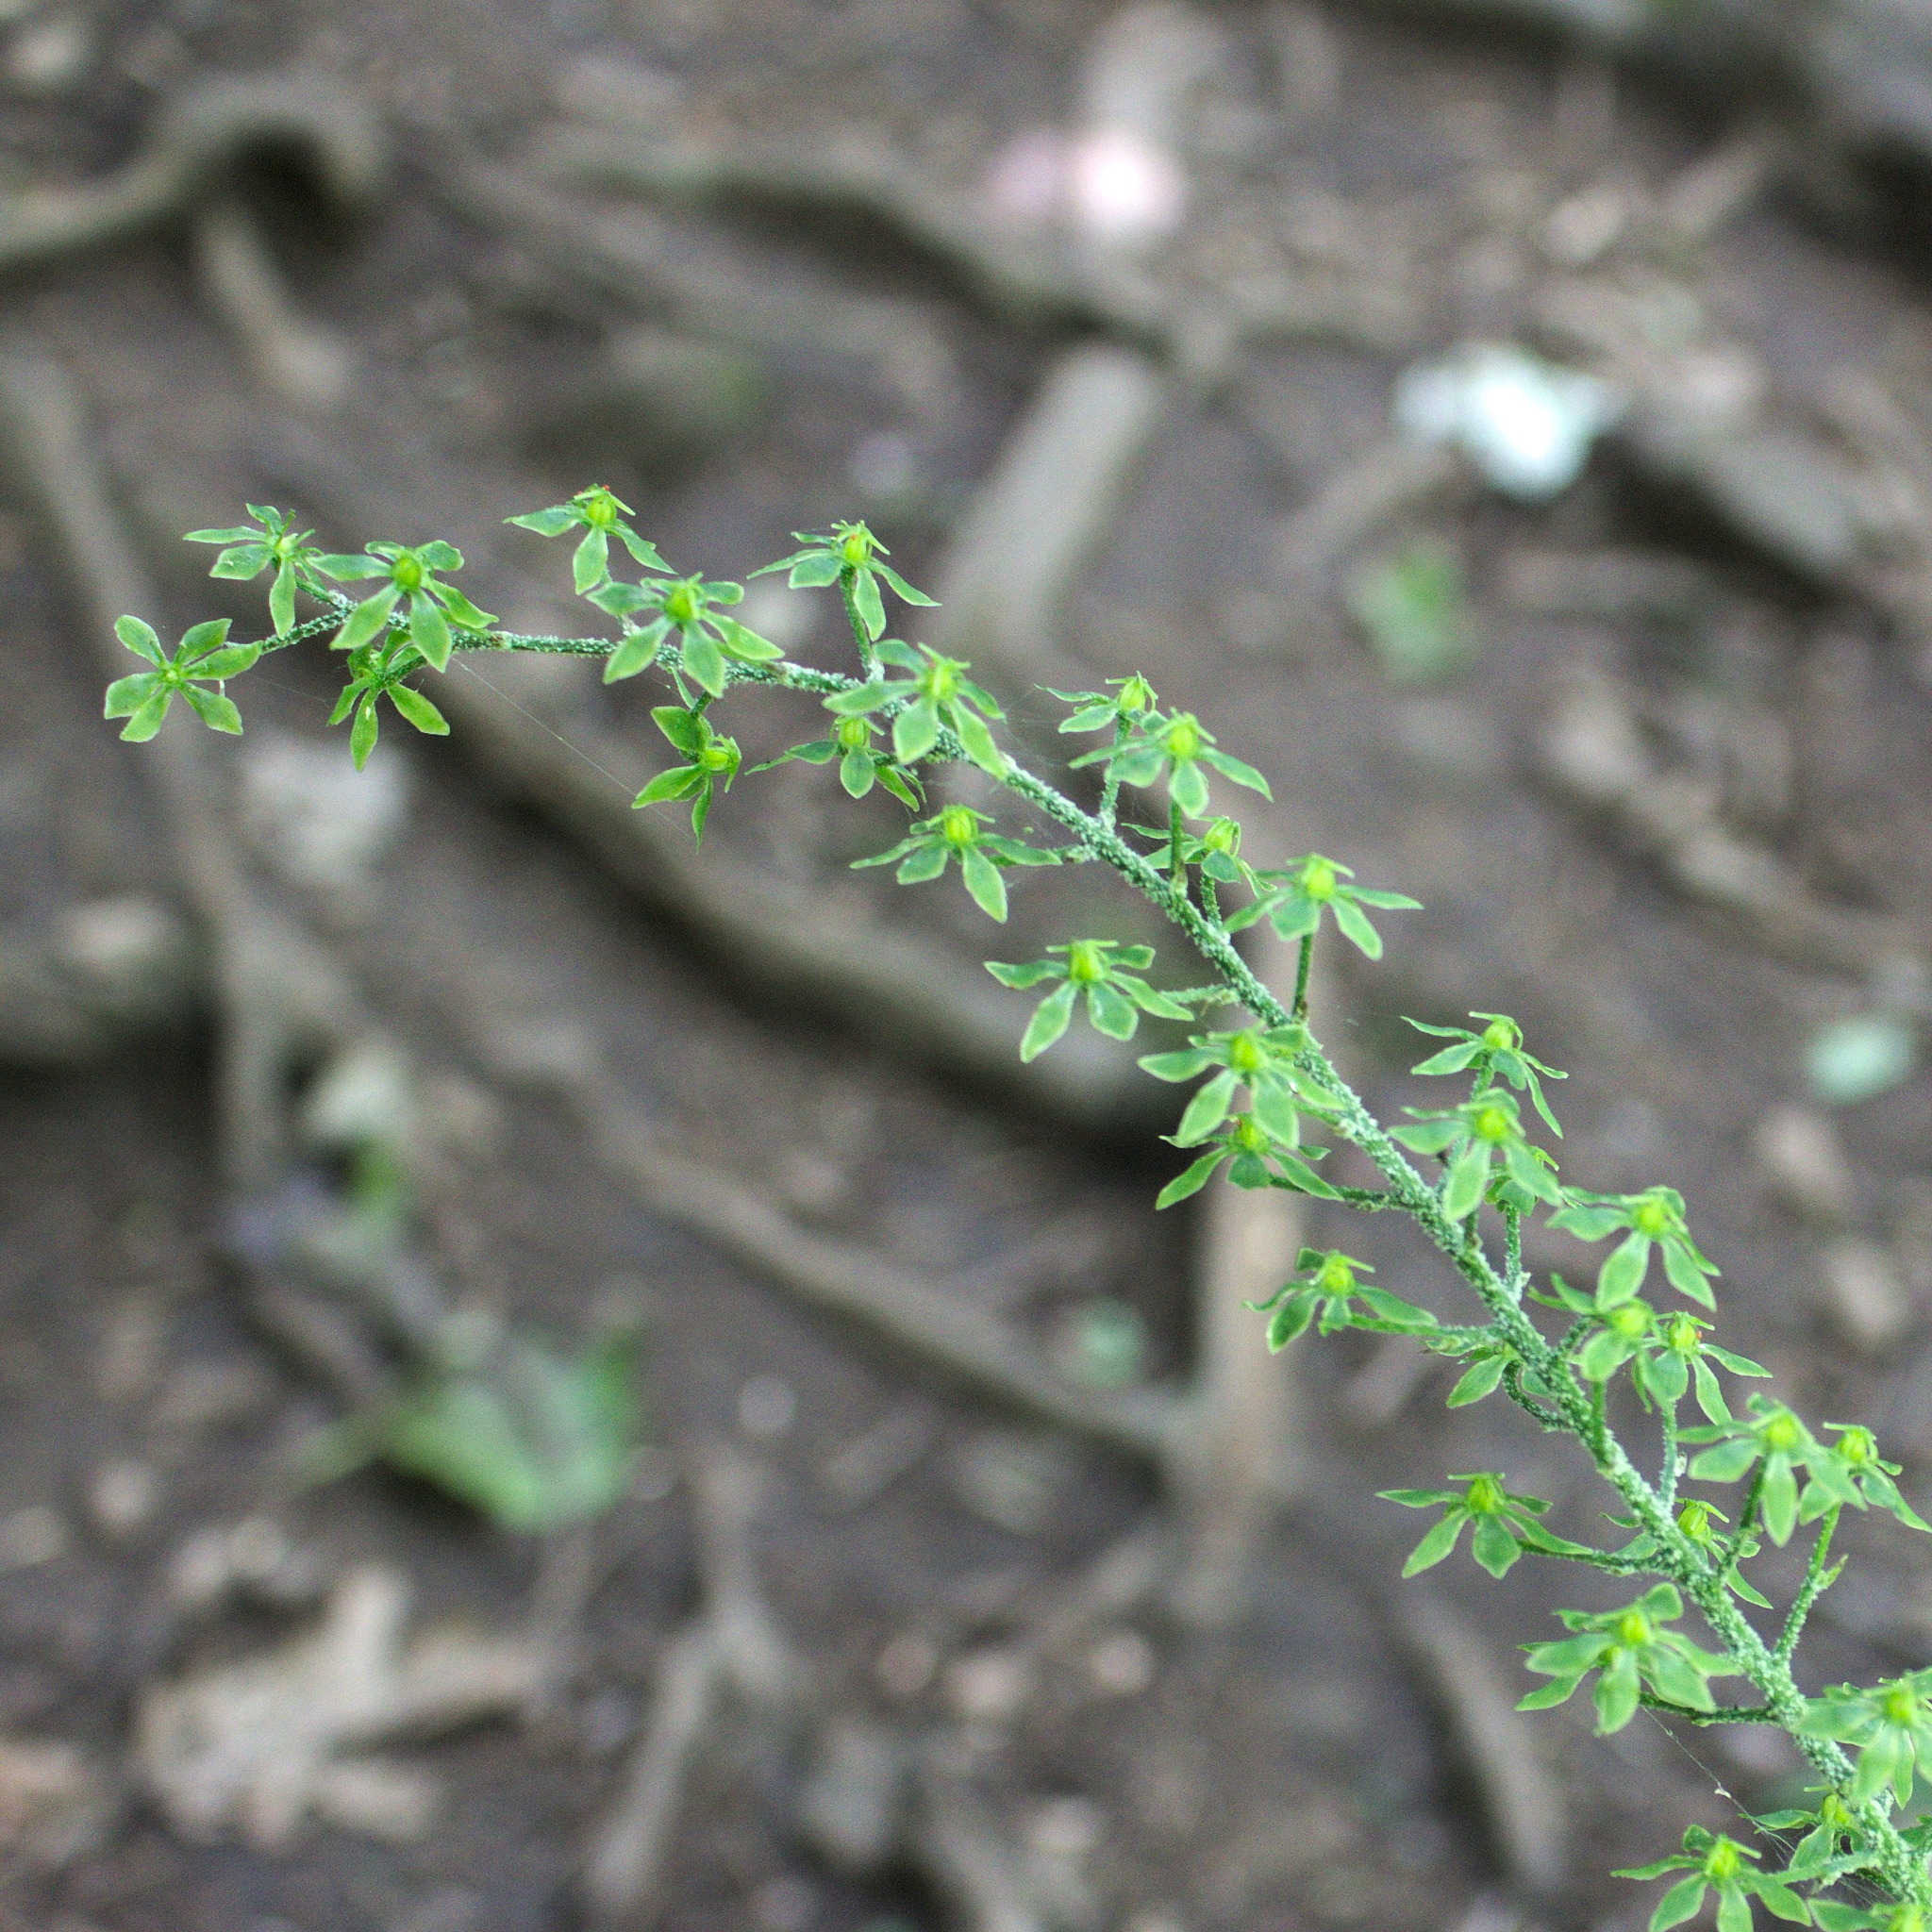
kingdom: Plantae
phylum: Tracheophyta
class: Liliopsida
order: Liliales
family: Melanthiaceae
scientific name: Melanthiaceae
